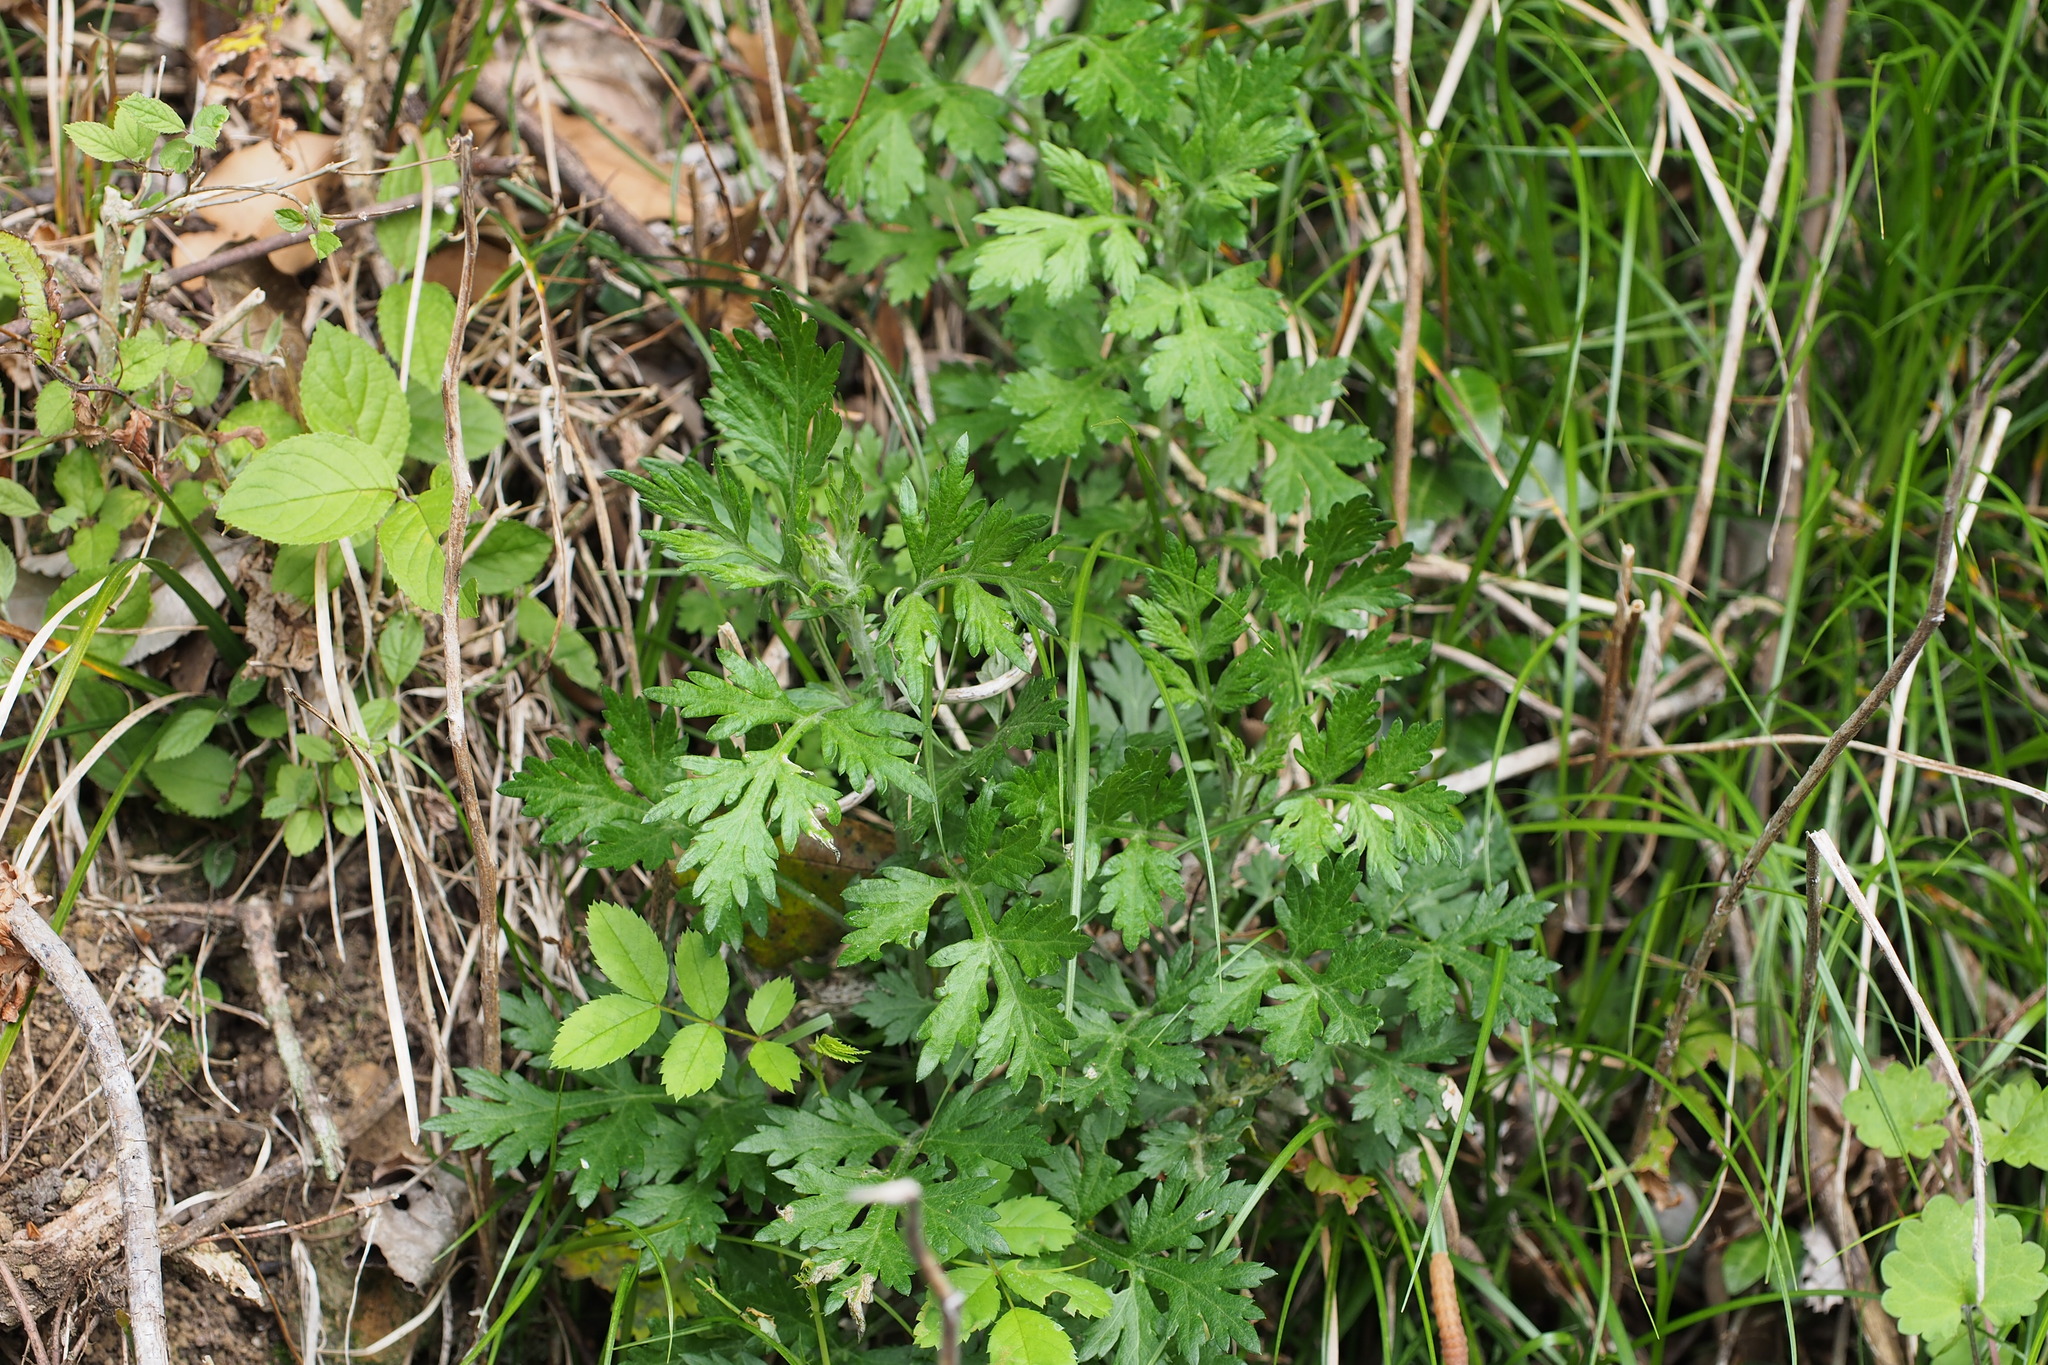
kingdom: Plantae
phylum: Tracheophyta
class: Magnoliopsida
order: Asterales
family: Asteraceae
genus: Artemisia
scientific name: Artemisia princeps
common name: Japanese mugwort
